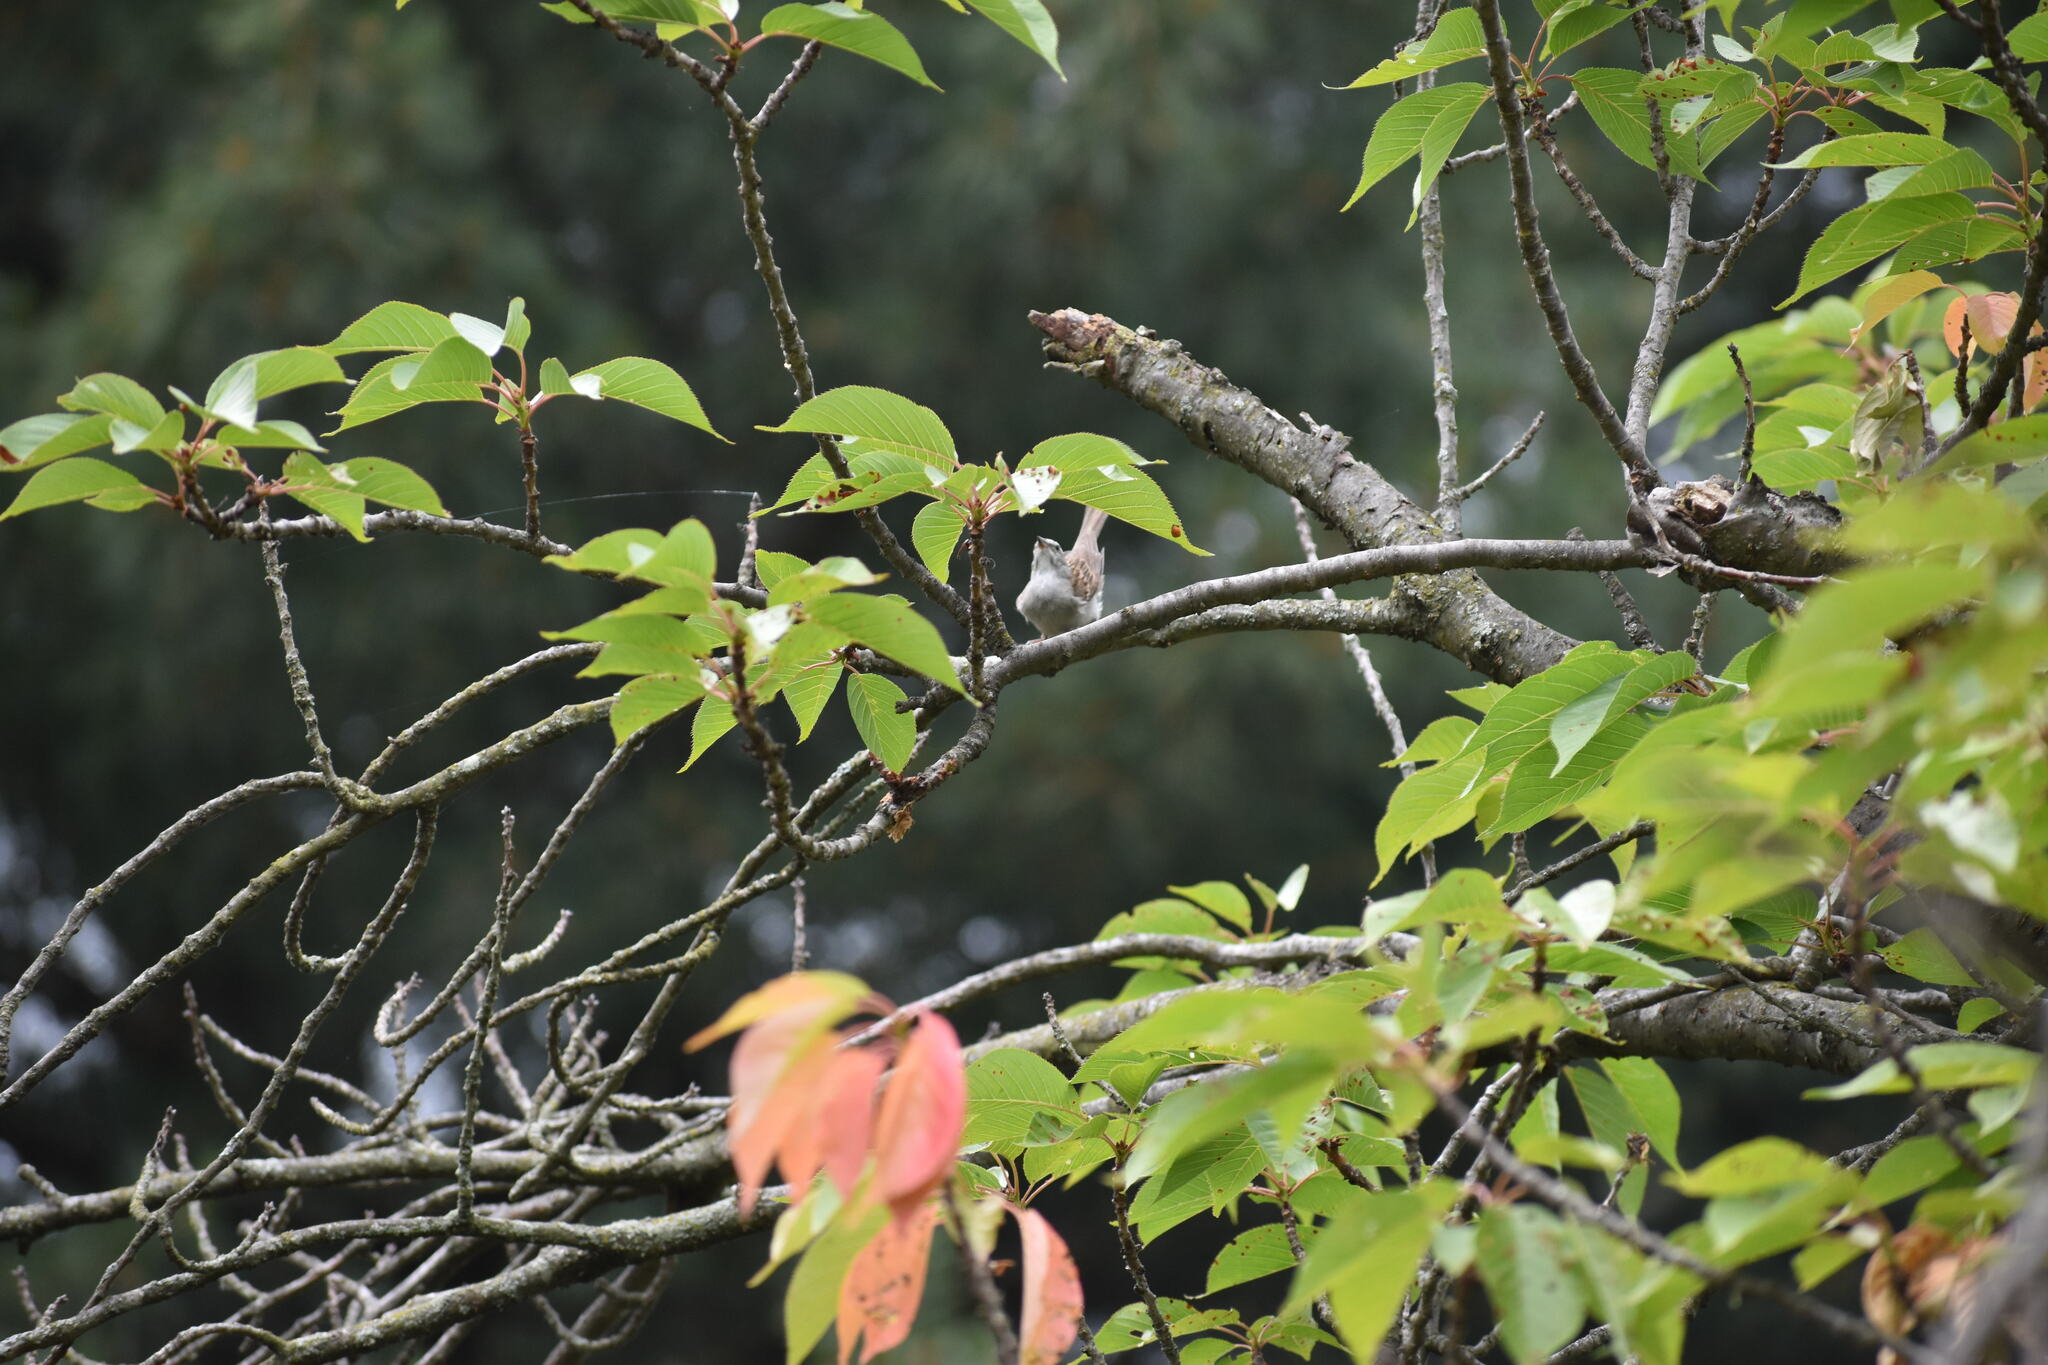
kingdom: Animalia
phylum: Chordata
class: Aves
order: Passeriformes
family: Passerellidae
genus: Spizella
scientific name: Spizella passerina
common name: Chipping sparrow
